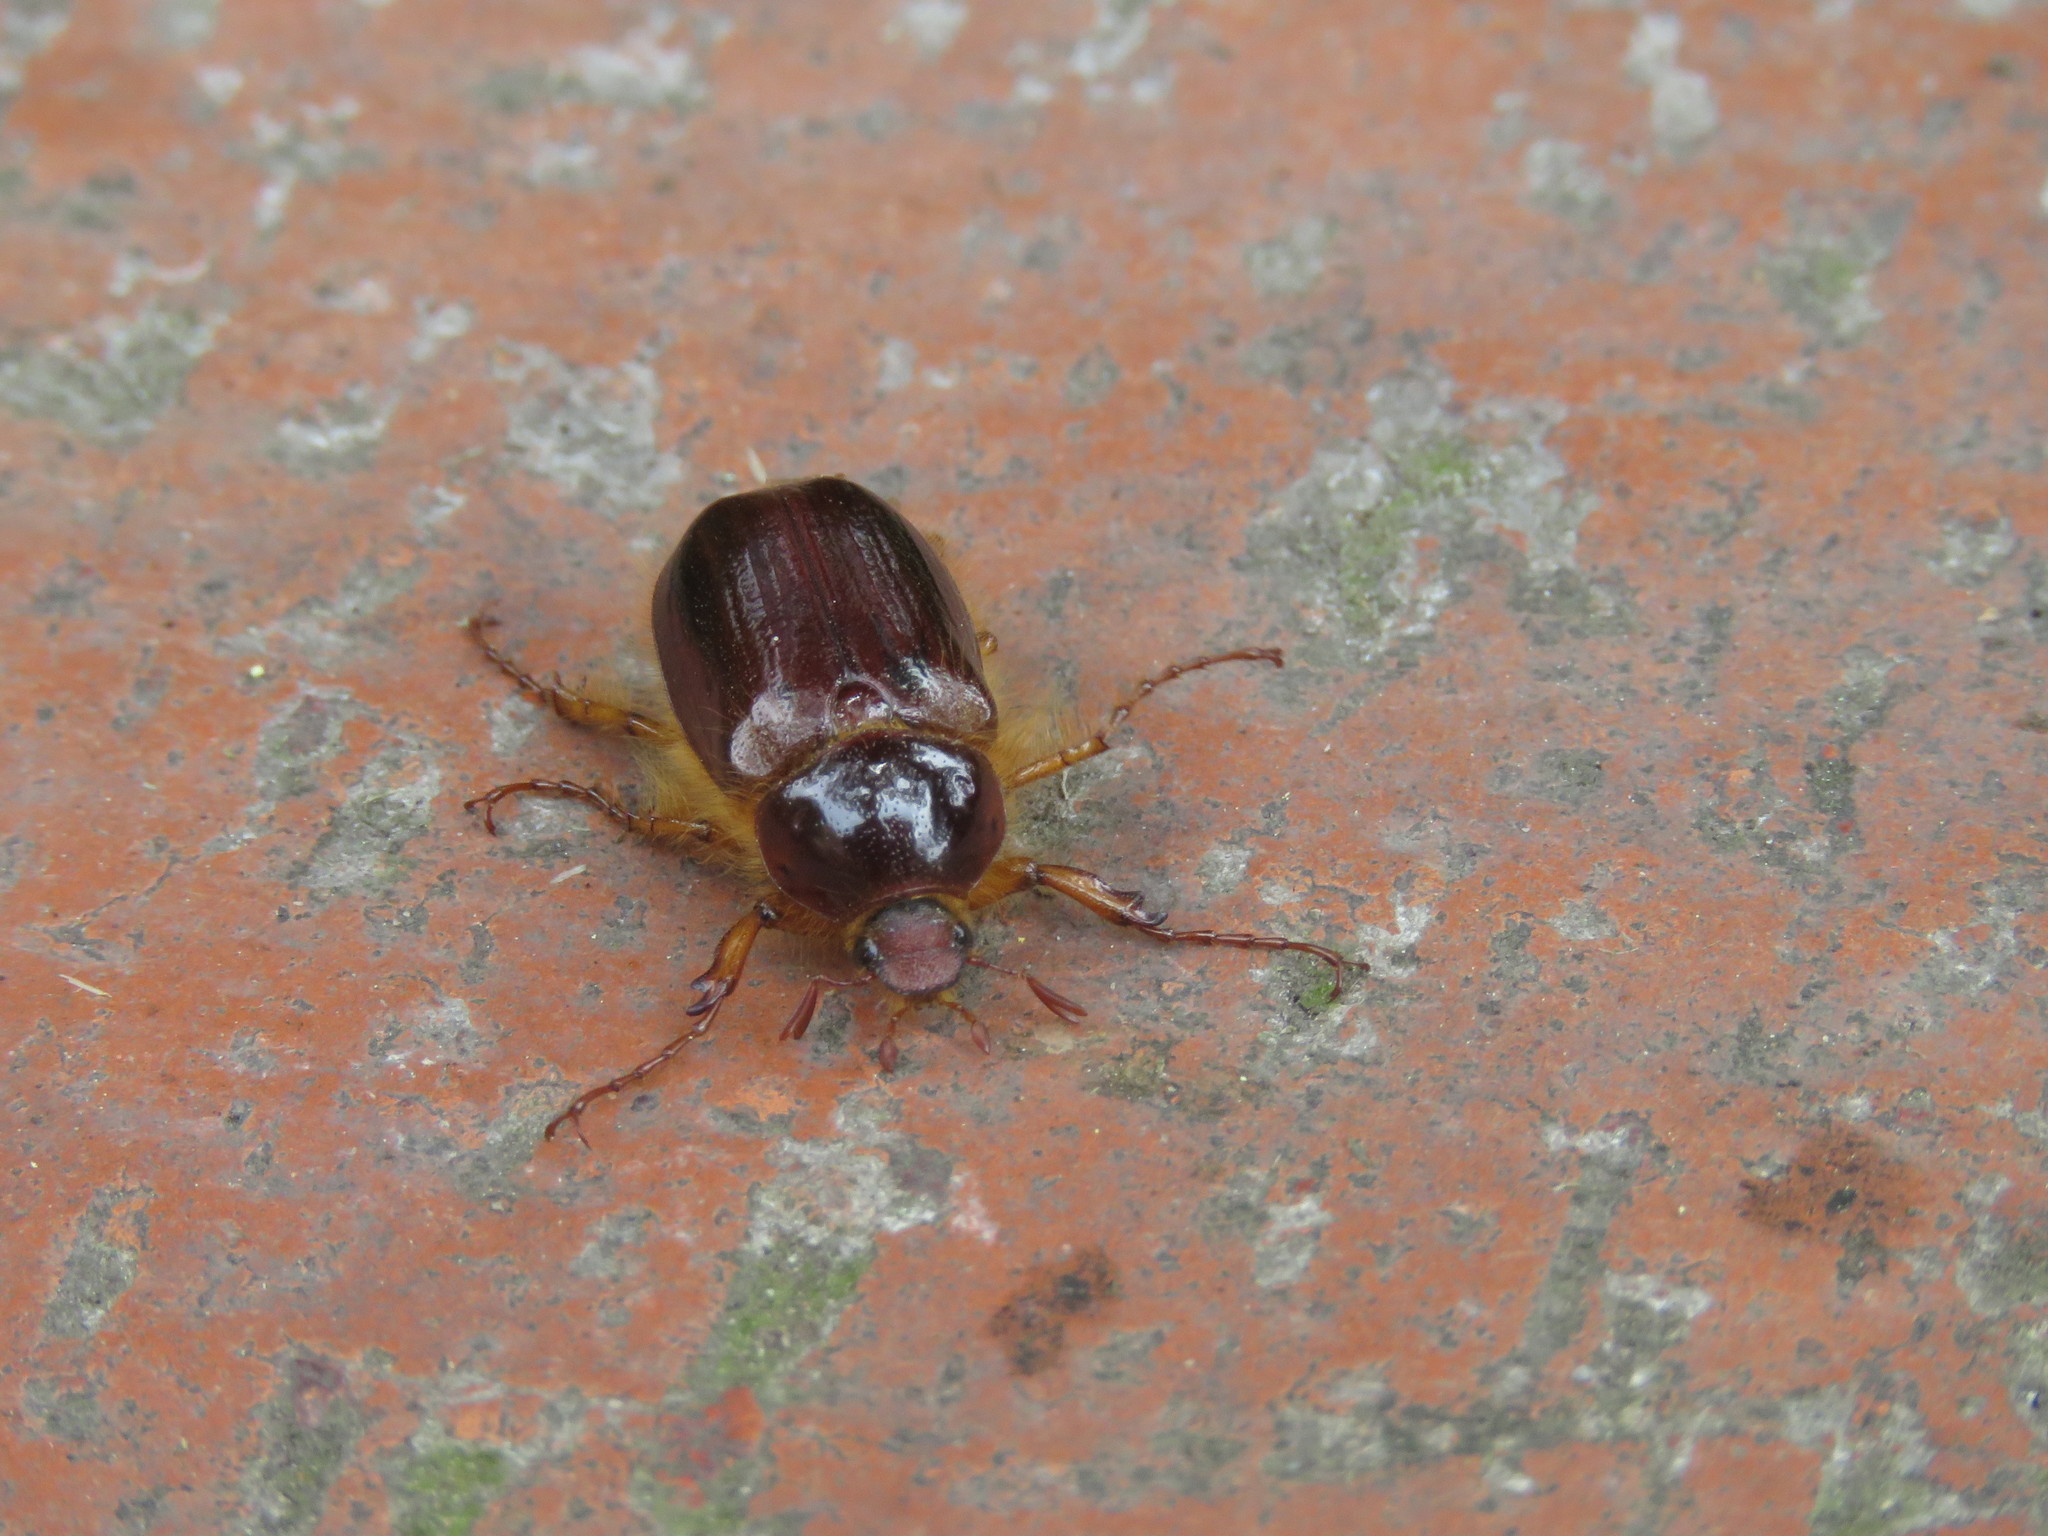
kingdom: Animalia
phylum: Arthropoda
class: Insecta
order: Coleoptera
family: Scarabaeidae
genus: Paulosawaya
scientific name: Paulosawaya ursina
